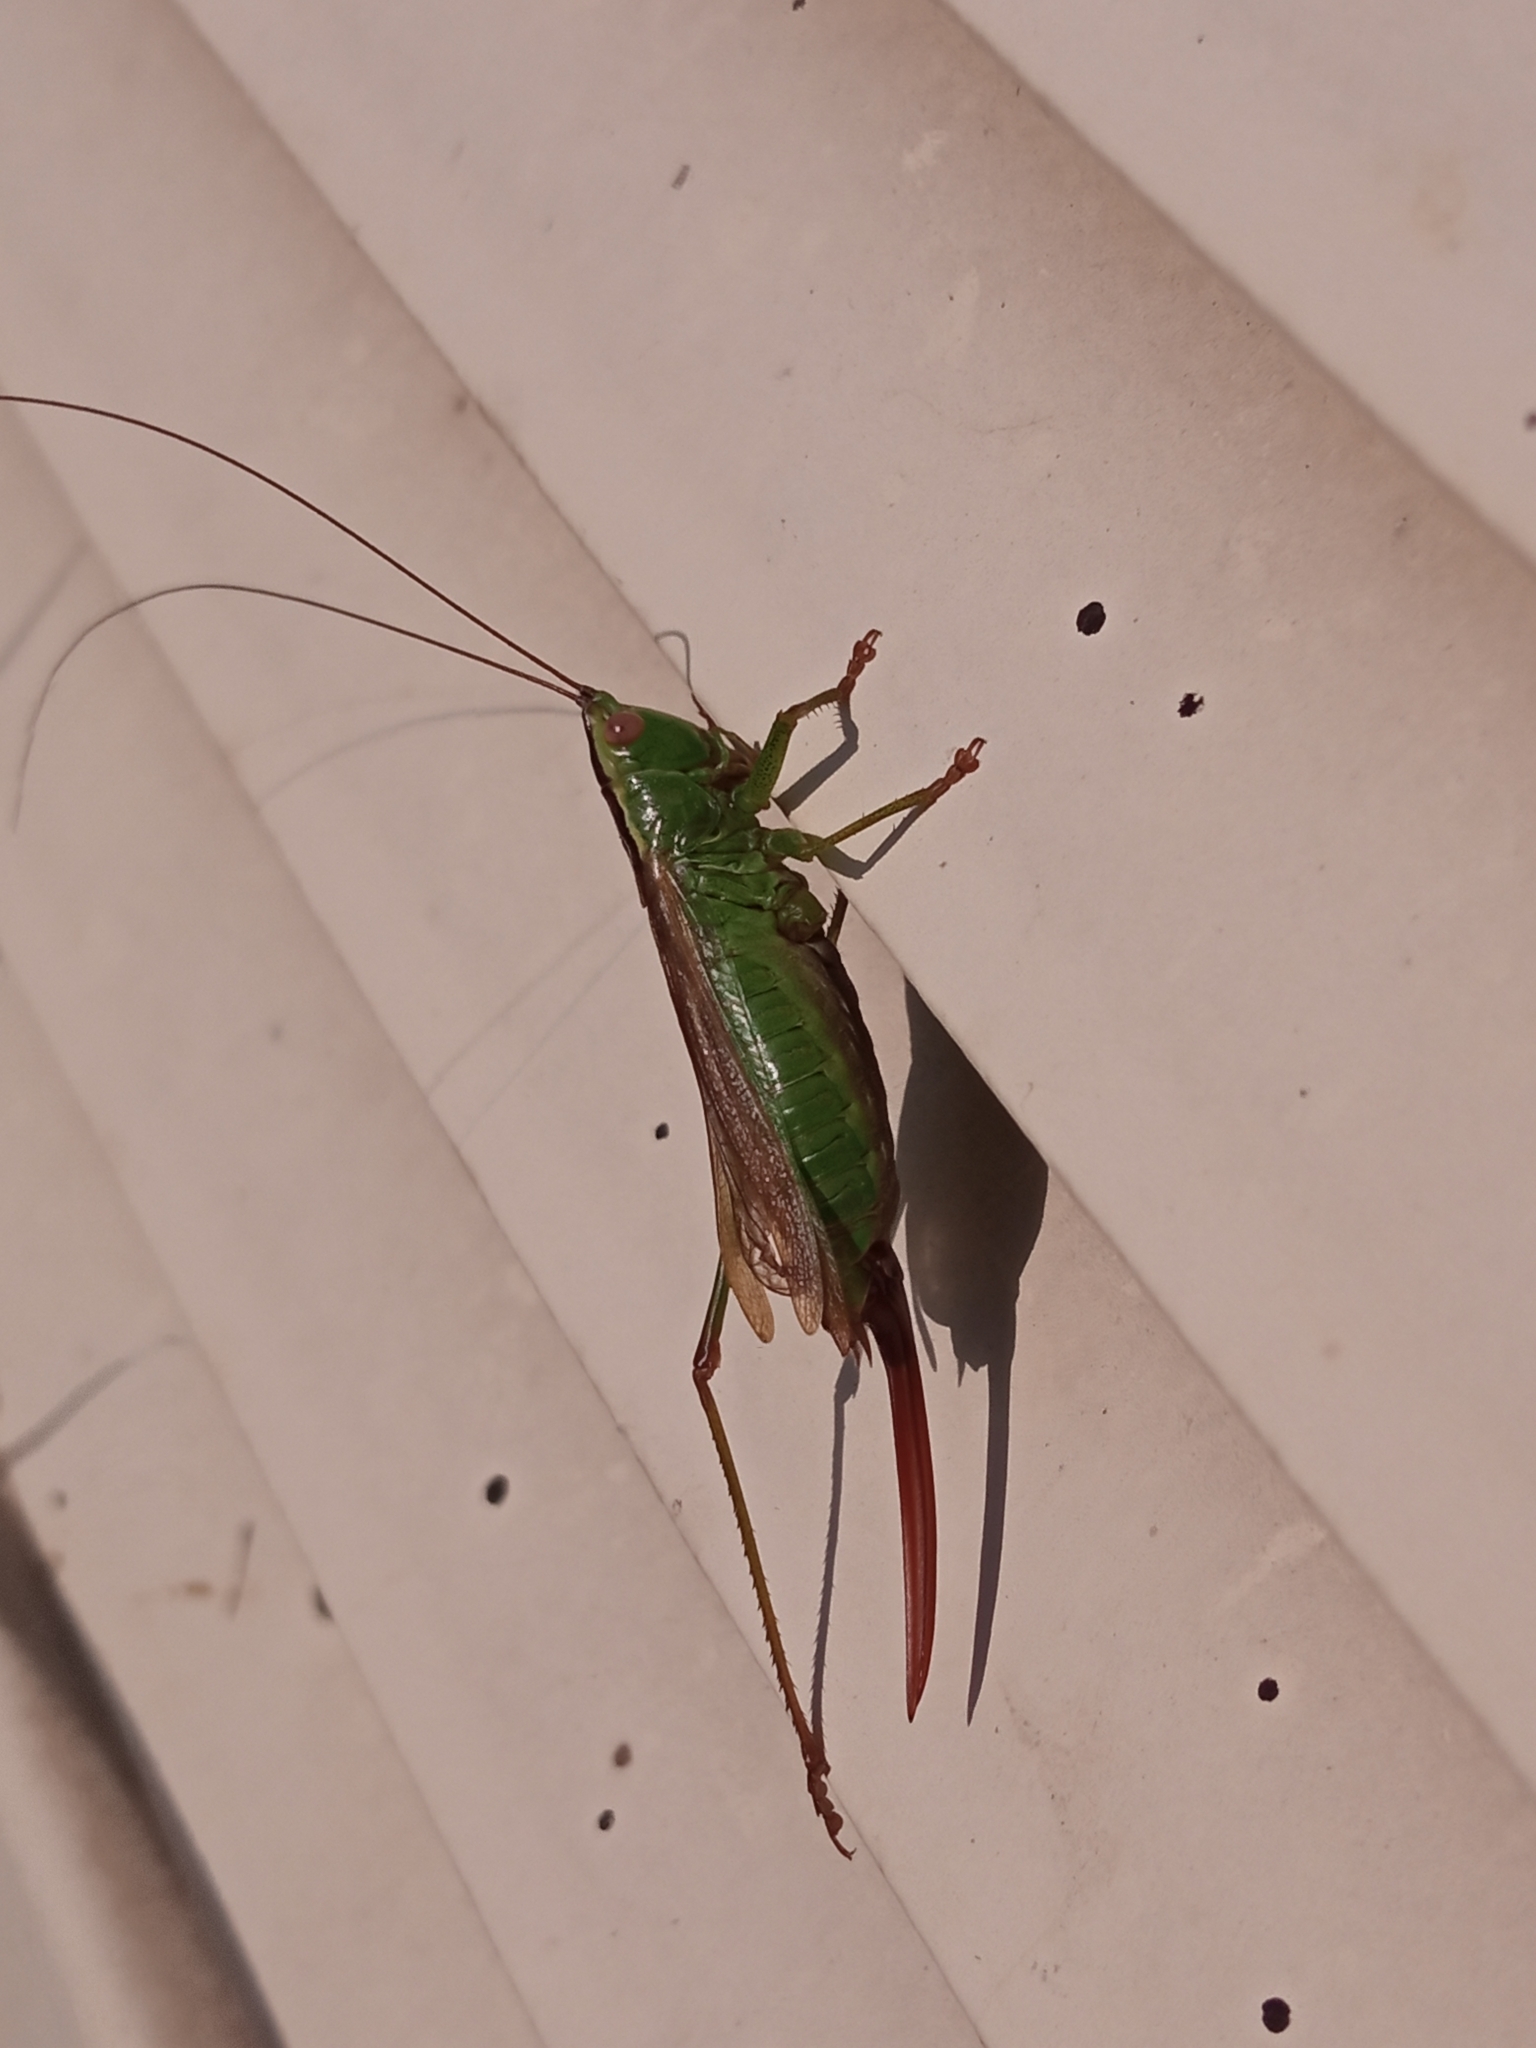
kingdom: Animalia
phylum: Arthropoda
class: Insecta
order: Orthoptera
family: Tettigoniidae
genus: Conocephalus
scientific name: Conocephalus fuscus
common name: Long-winged conehead
